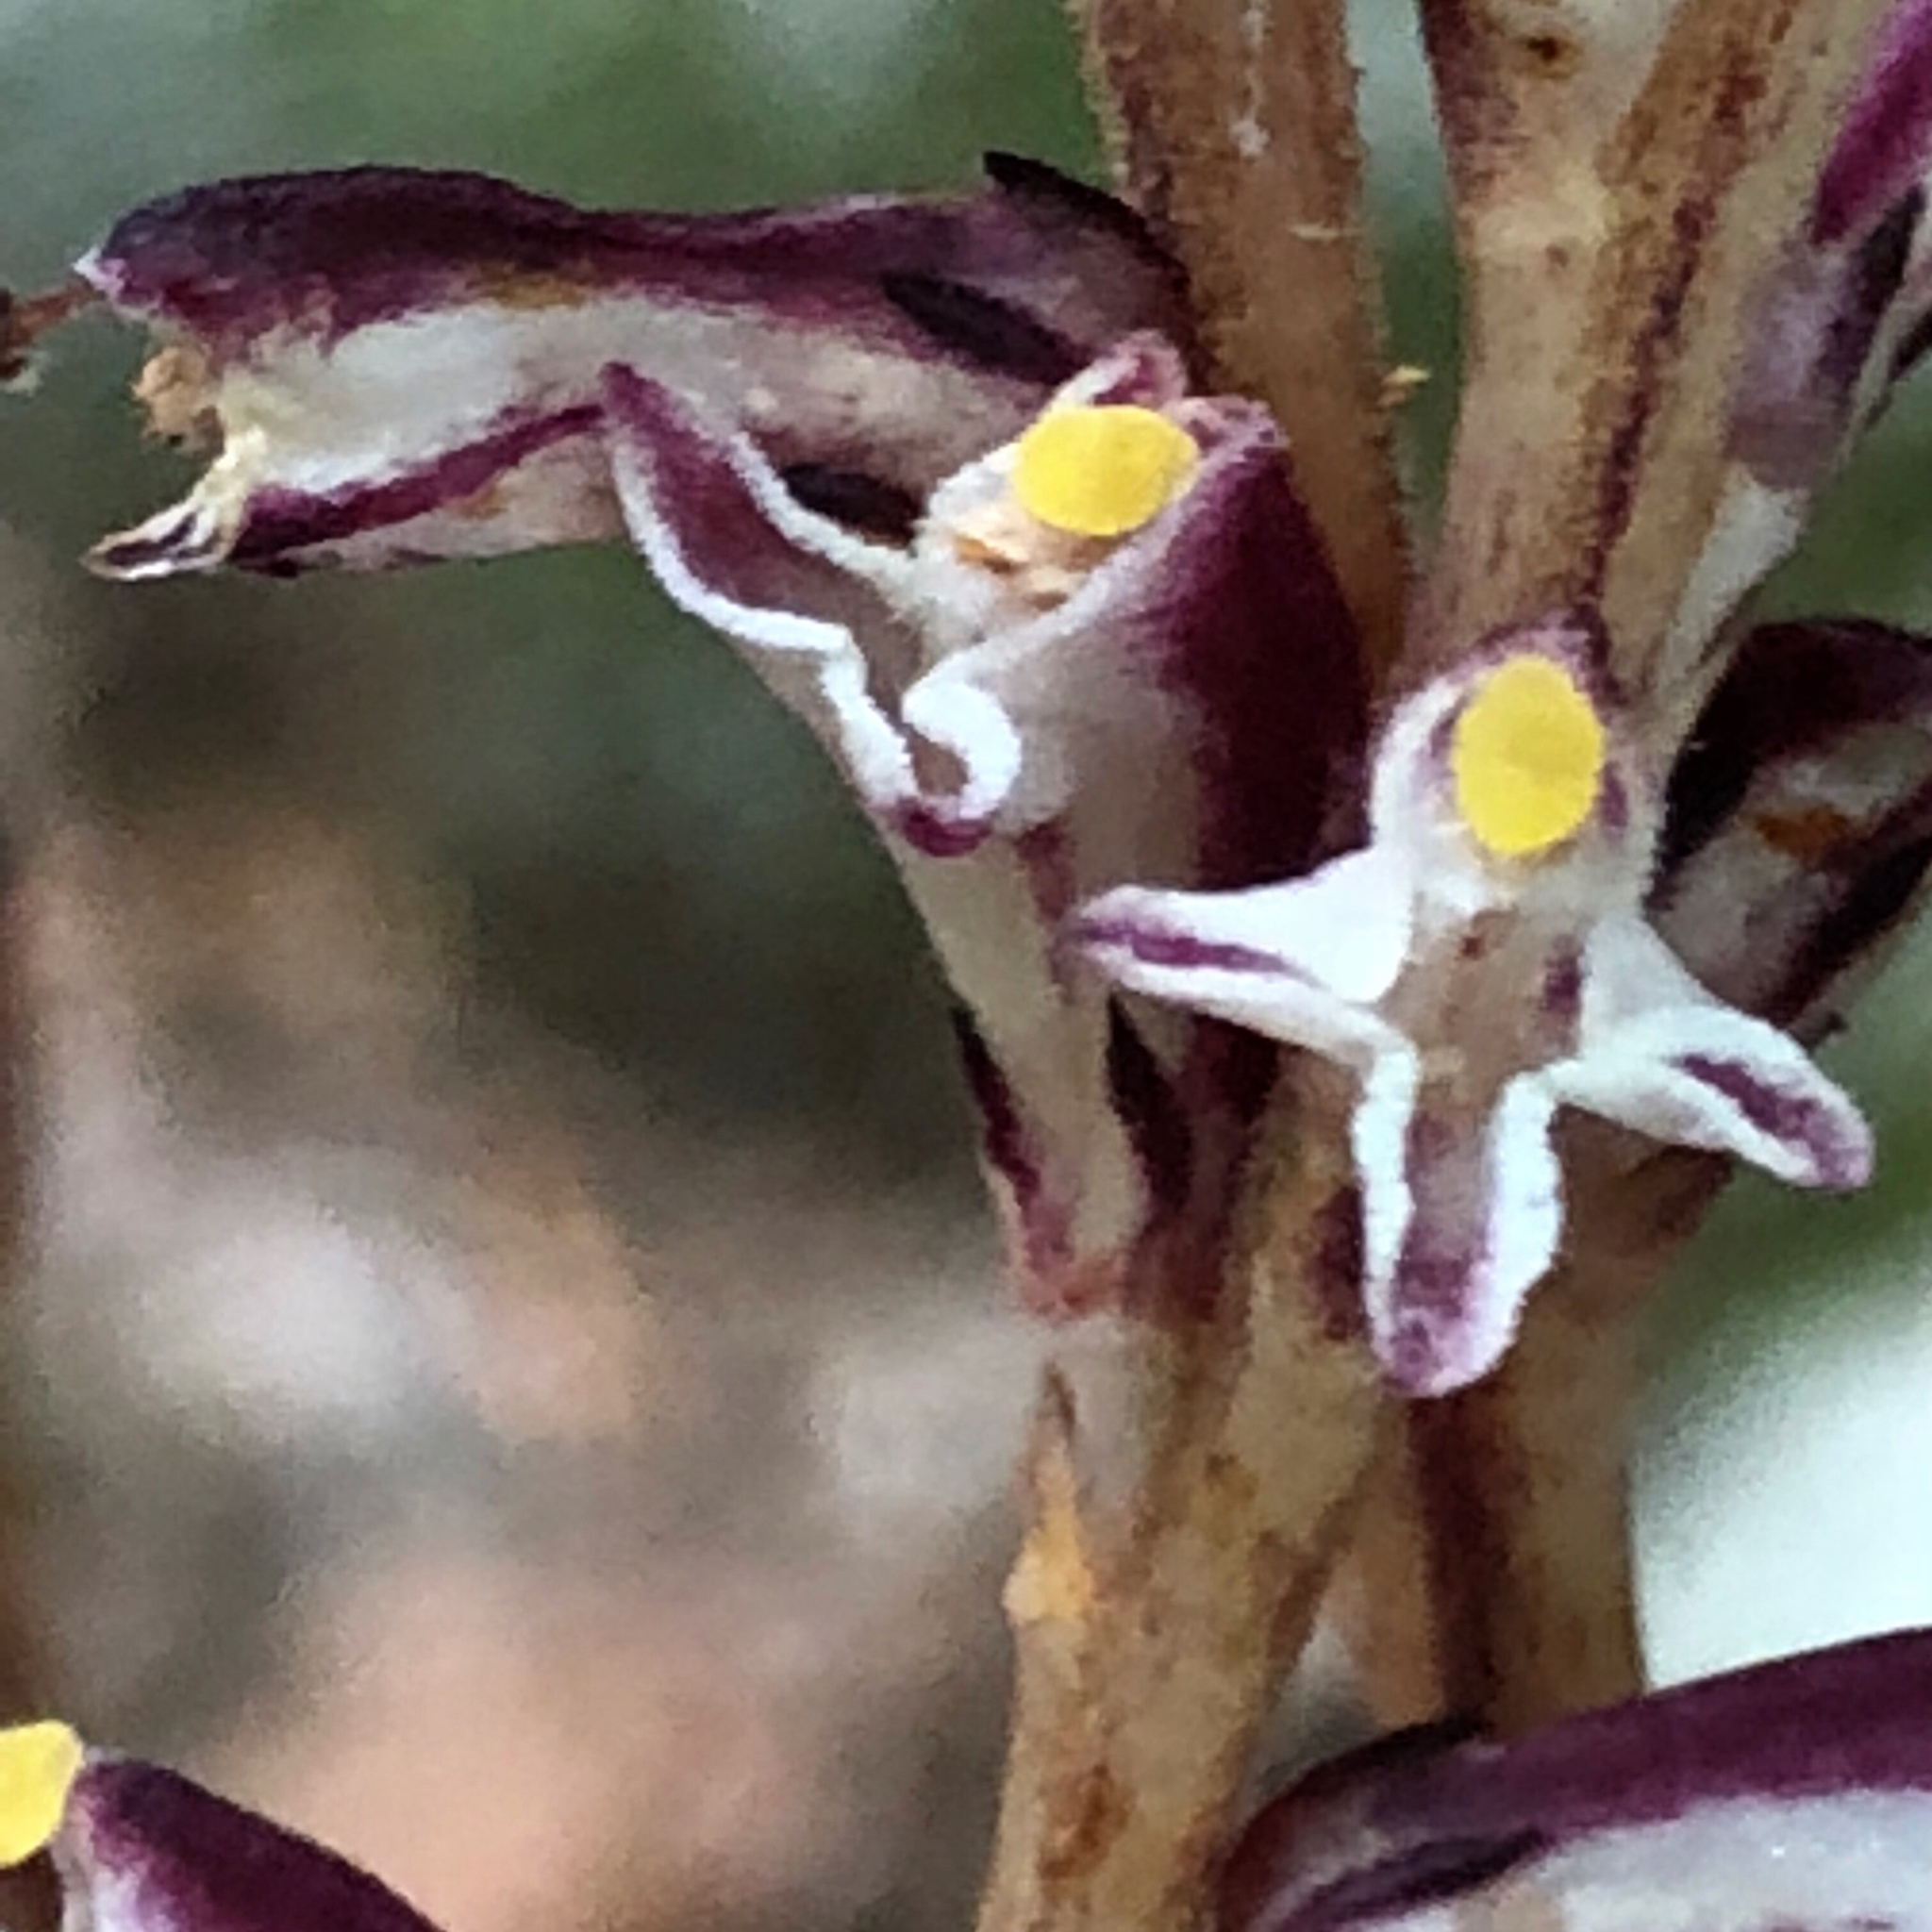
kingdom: Plantae
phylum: Tracheophyta
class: Magnoliopsida
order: Lamiales
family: Orobanchaceae
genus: Epifagus
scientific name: Epifagus virginiana
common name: Beechdrops
